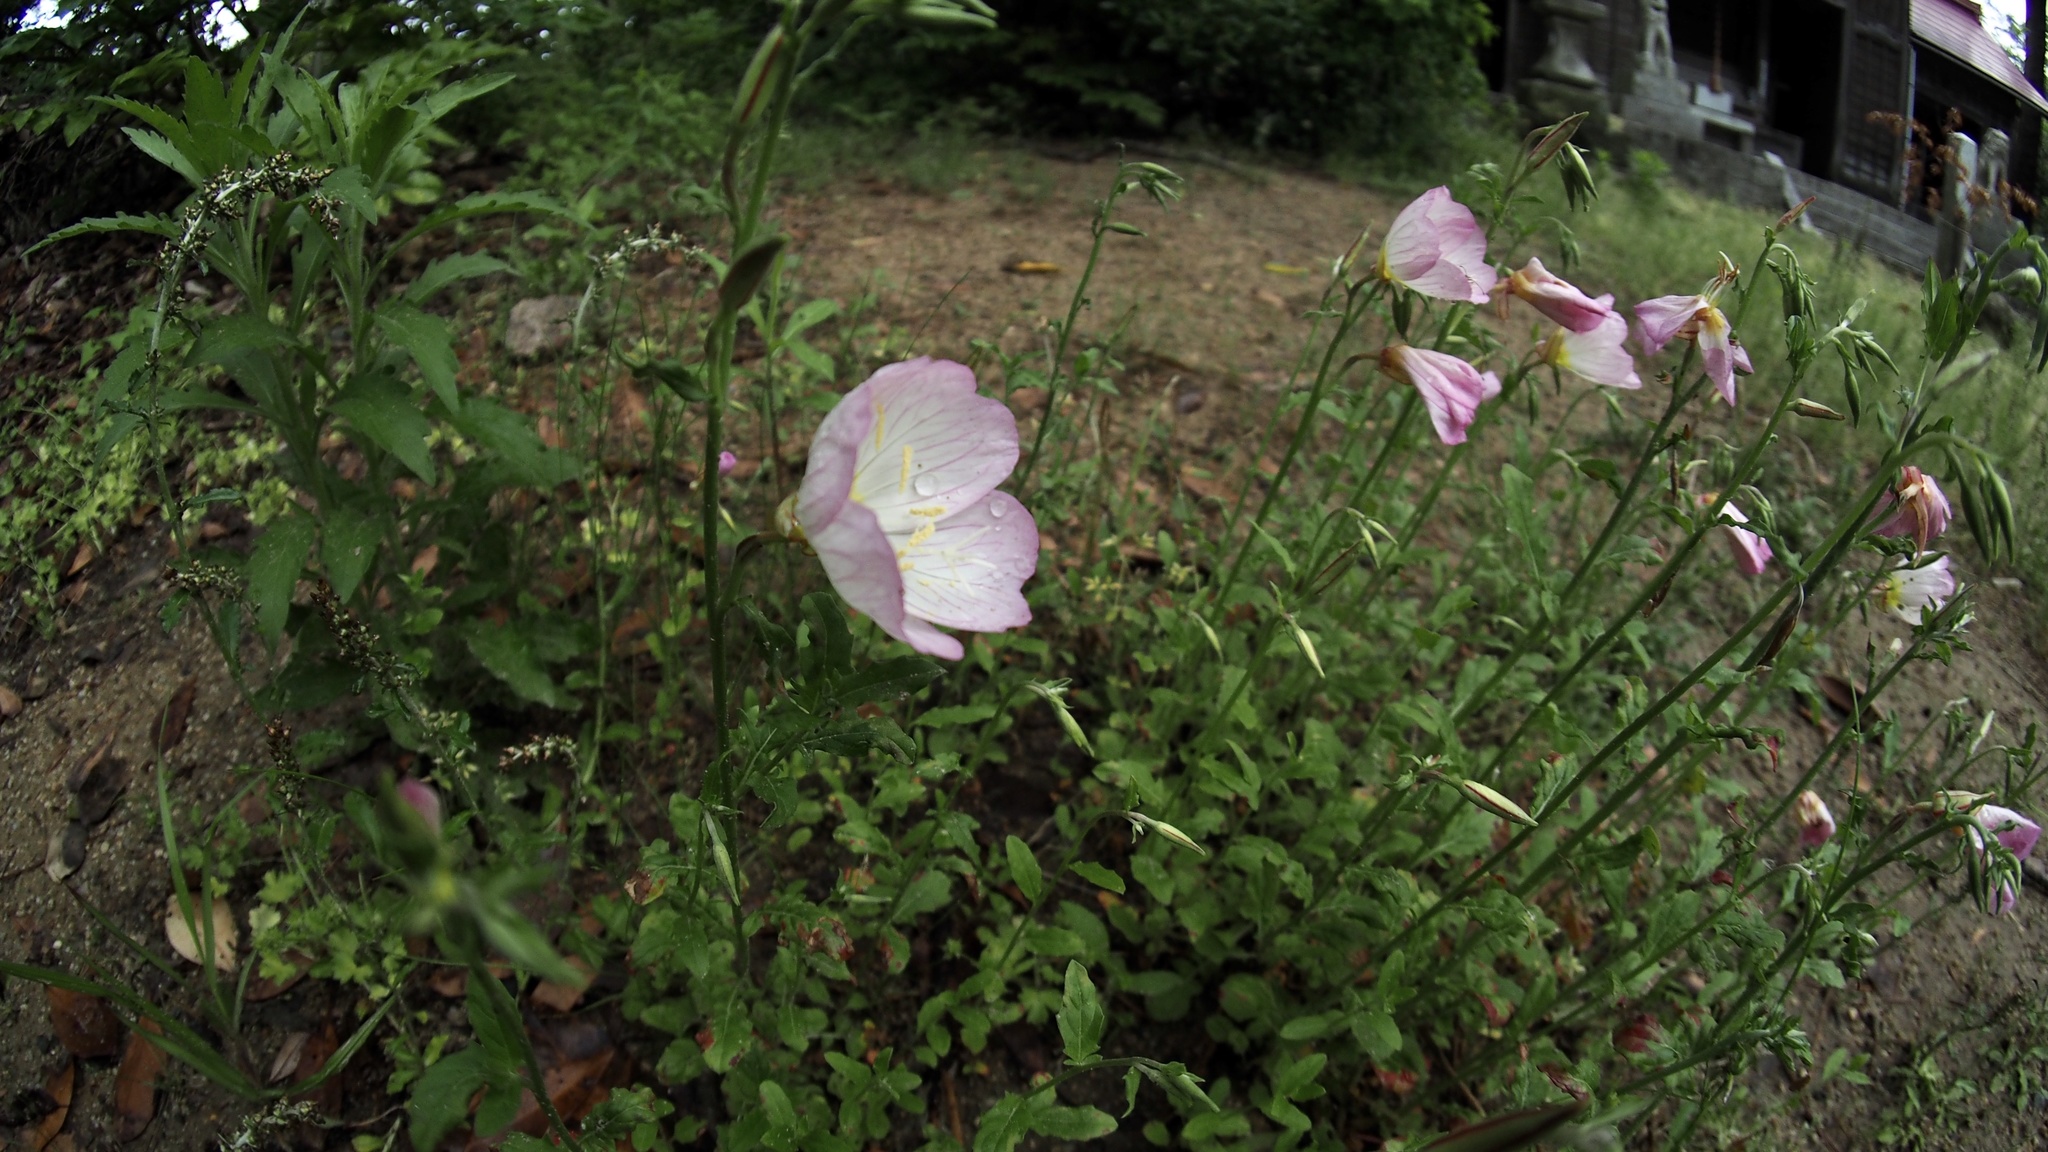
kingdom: Plantae
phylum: Tracheophyta
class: Magnoliopsida
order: Myrtales
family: Onagraceae
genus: Oenothera
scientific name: Oenothera speciosa
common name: White evening-primrose
